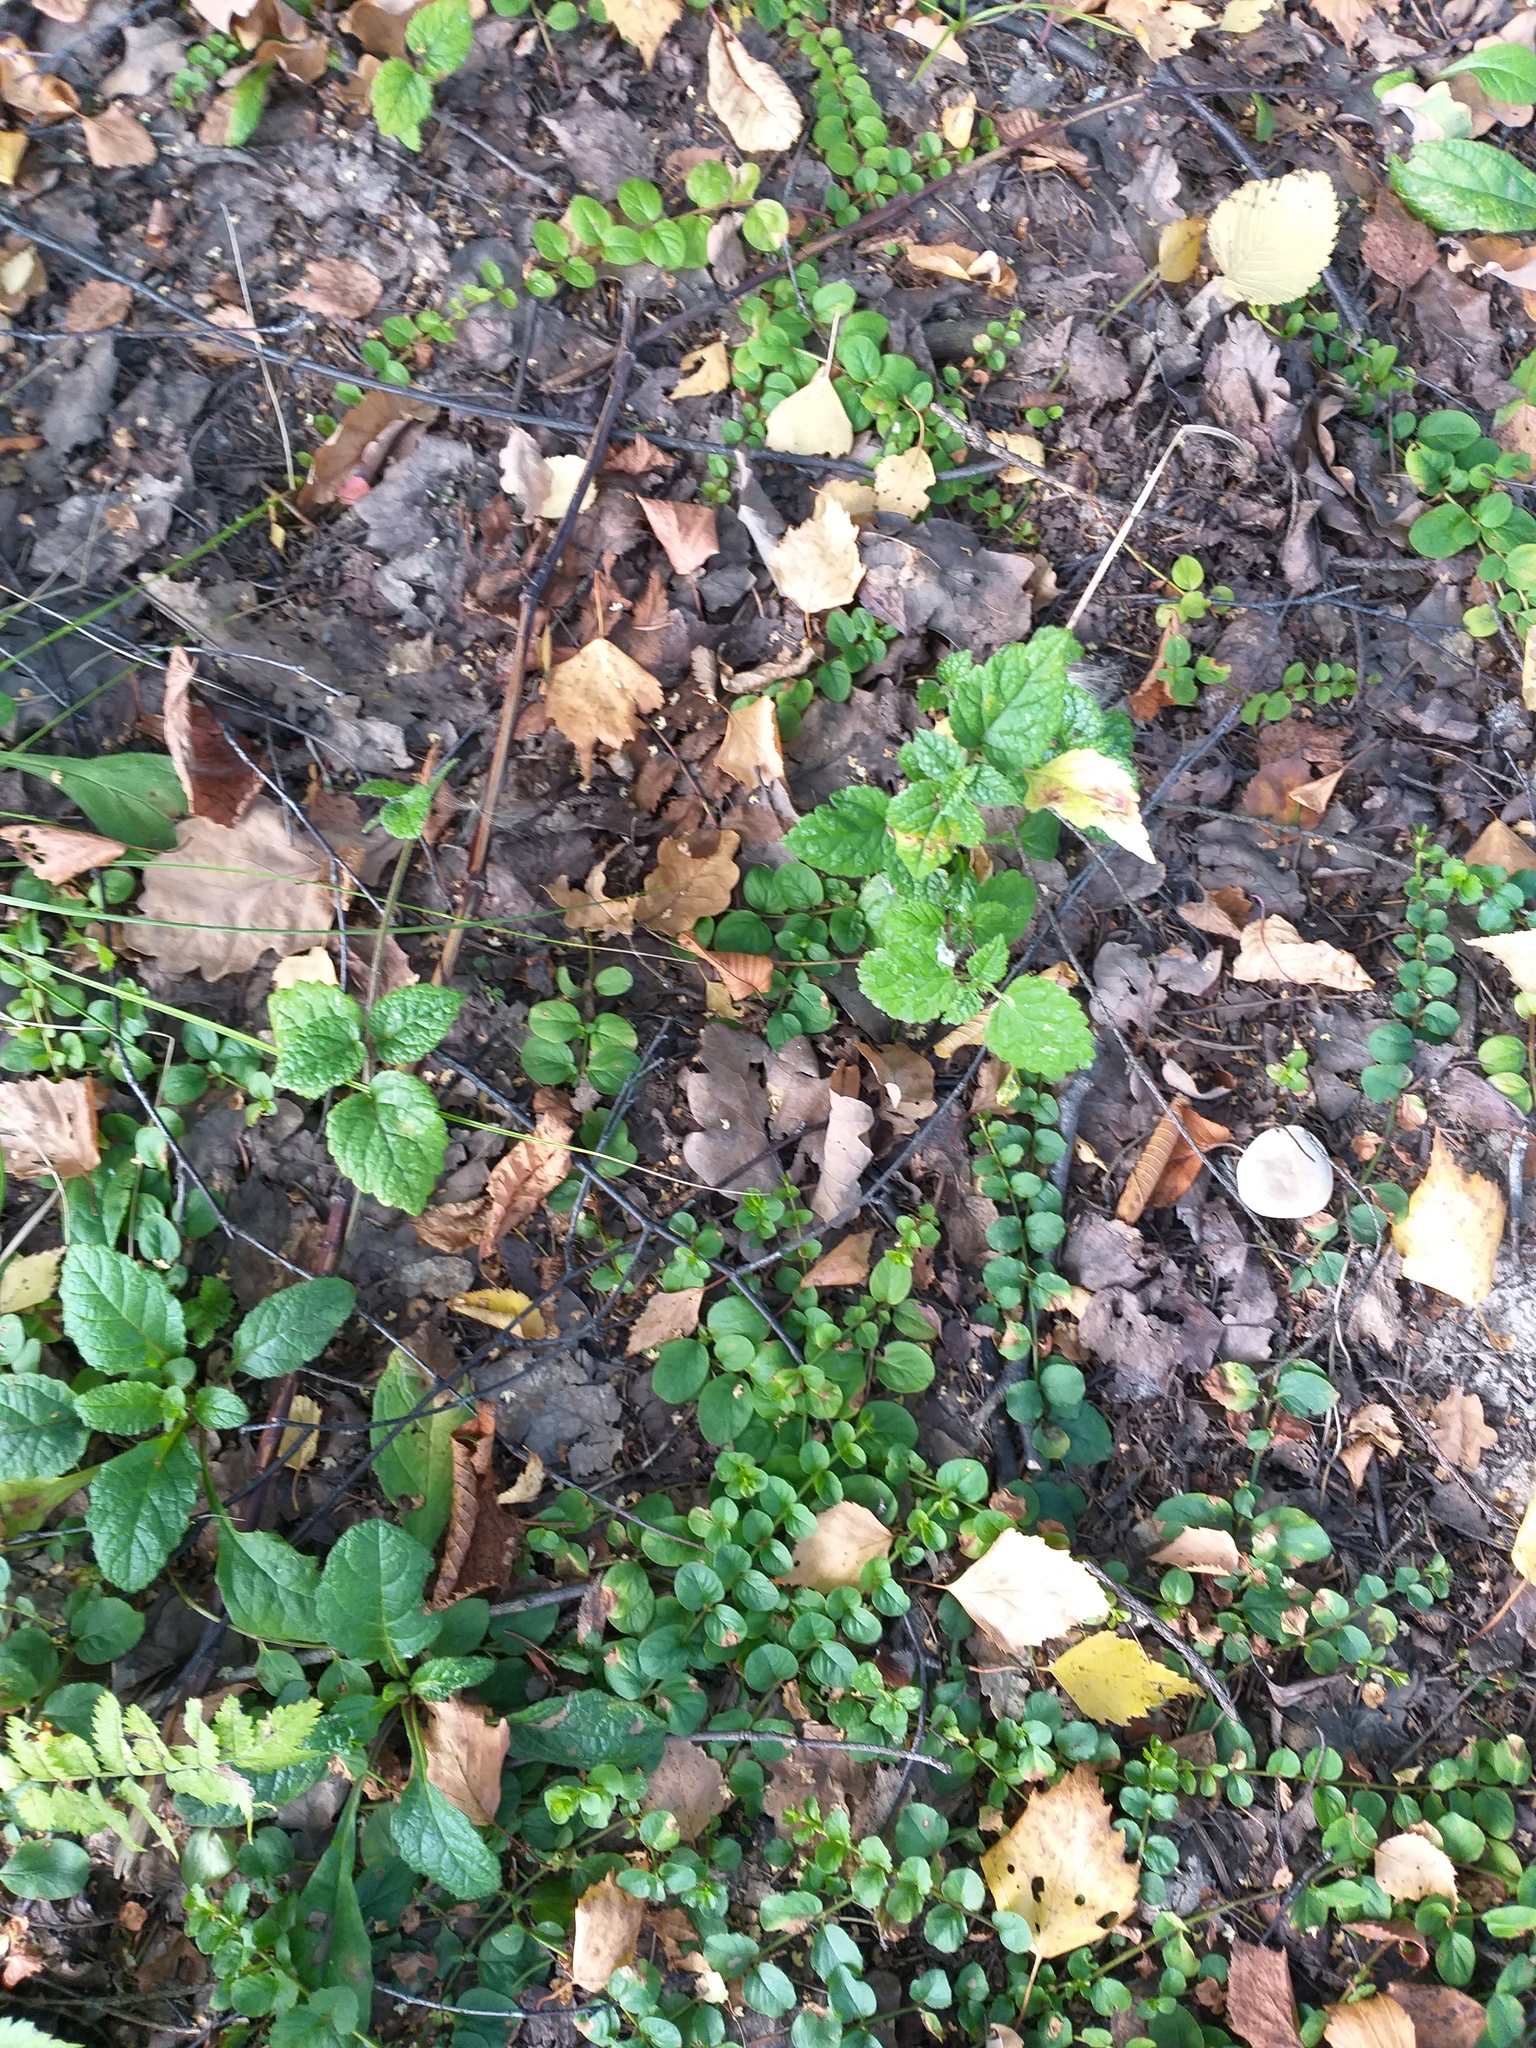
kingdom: Plantae
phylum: Tracheophyta
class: Magnoliopsida
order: Lamiales
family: Lamiaceae
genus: Lamium
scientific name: Lamium galeobdolon
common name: Yellow archangel
